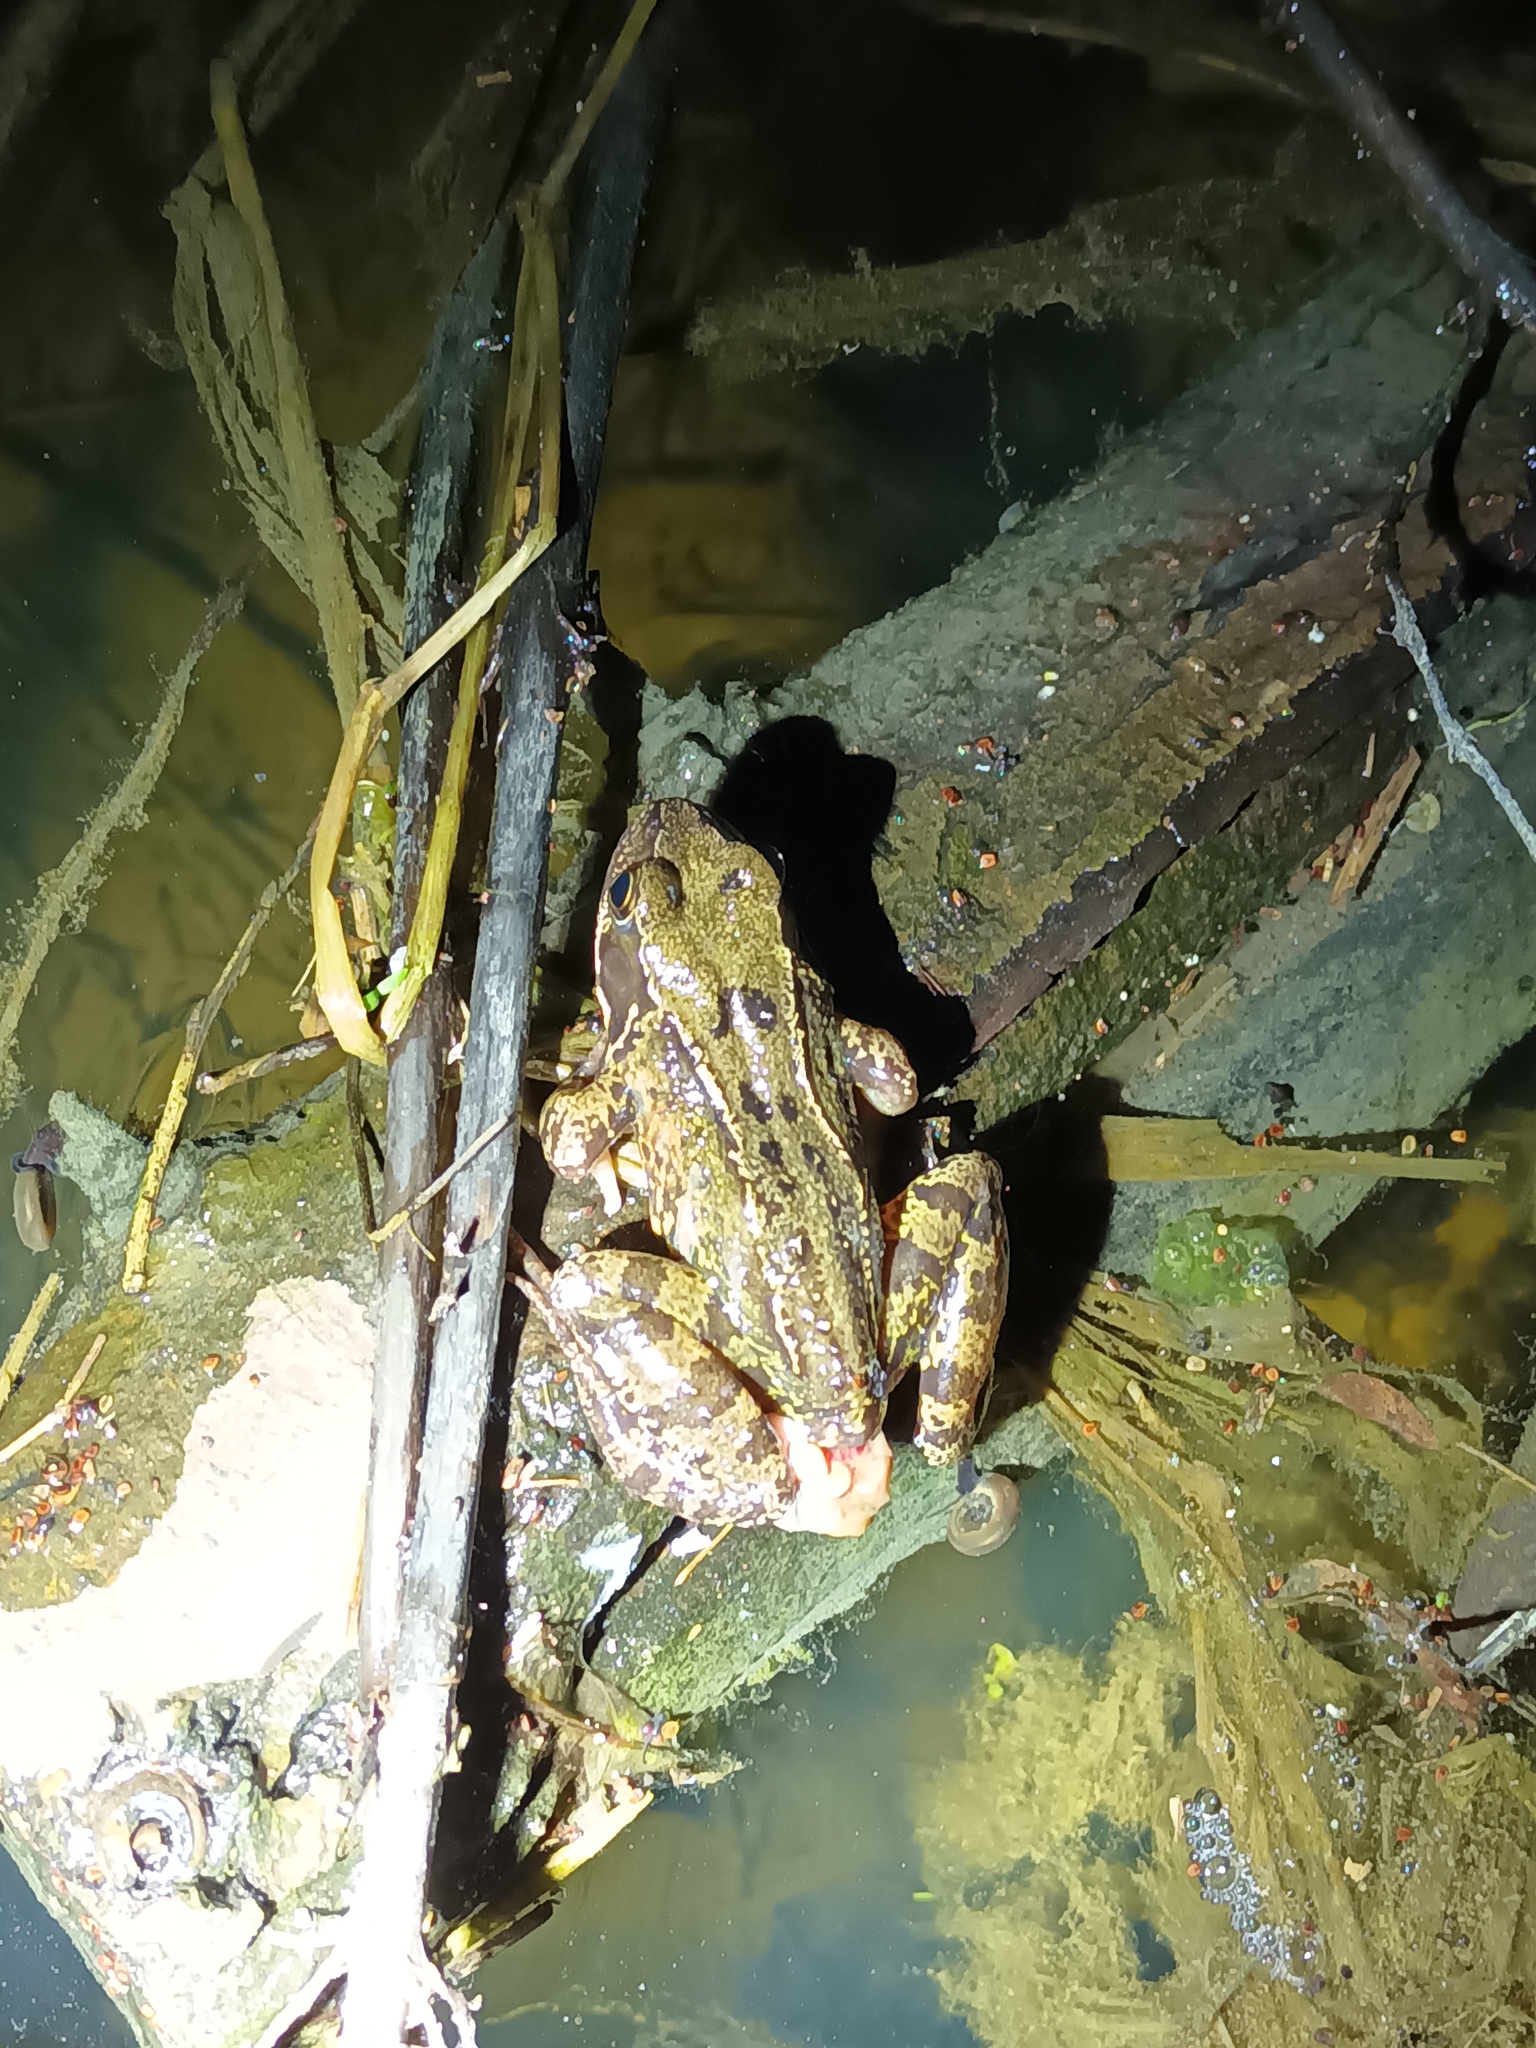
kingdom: Animalia
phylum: Chordata
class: Amphibia
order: Anura
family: Ranidae
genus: Rana
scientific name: Rana temporaria
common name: Common frog
